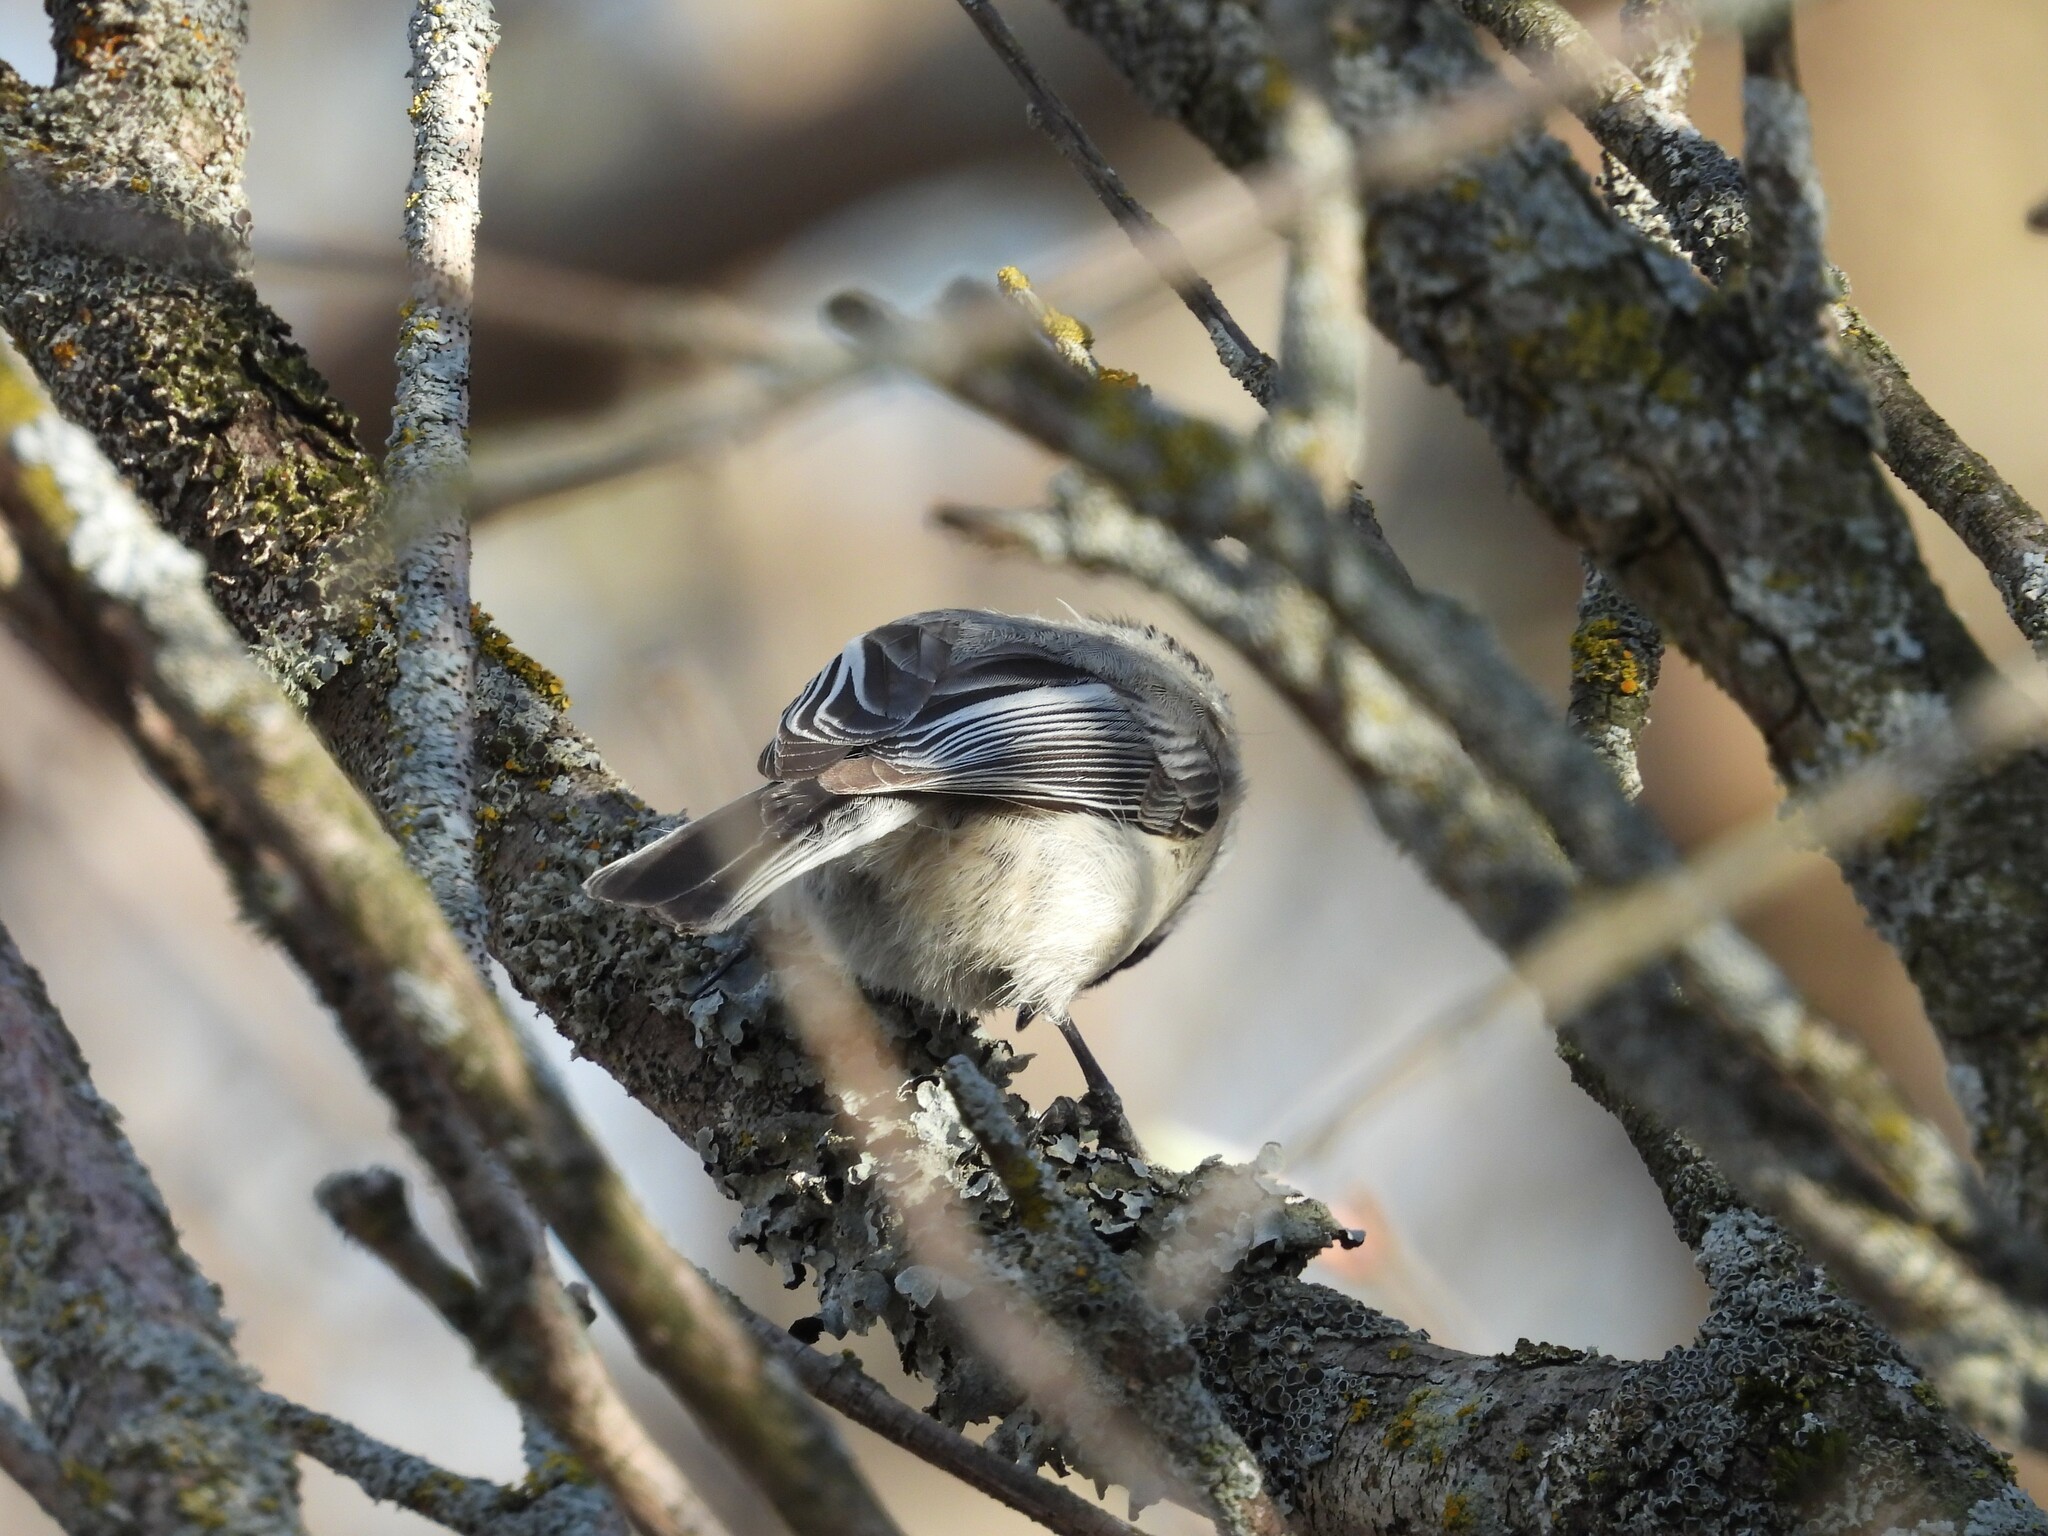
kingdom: Animalia
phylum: Chordata
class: Aves
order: Passeriformes
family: Paridae
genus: Poecile
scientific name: Poecile atricapillus
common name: Black-capped chickadee
